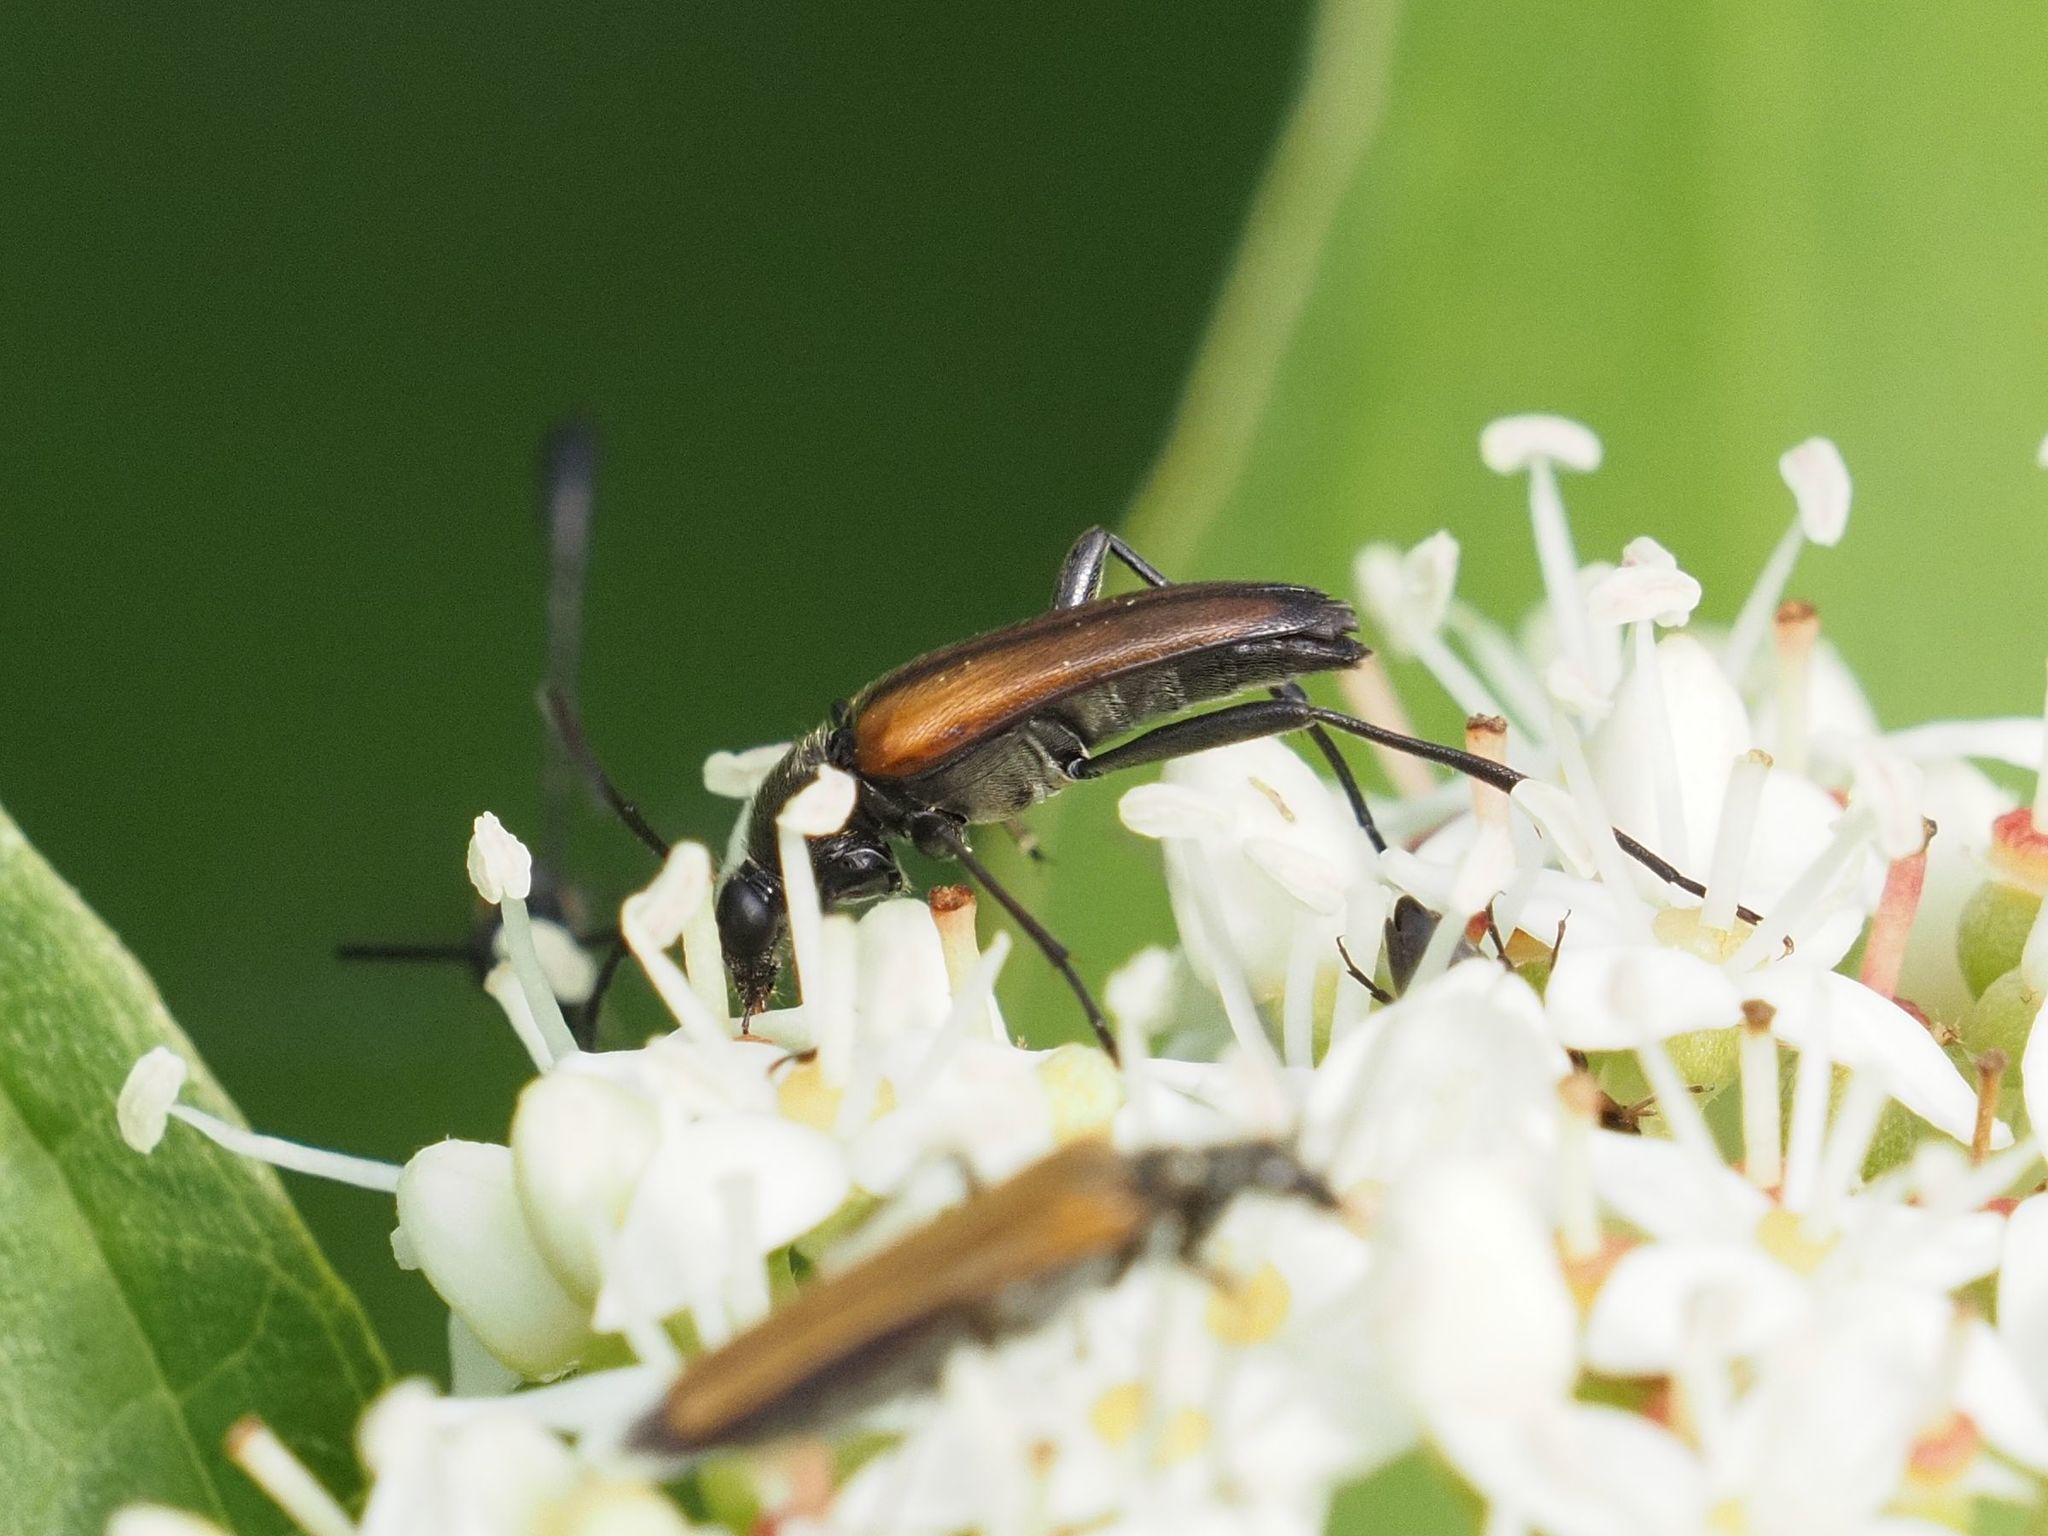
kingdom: Animalia
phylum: Arthropoda
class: Insecta
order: Coleoptera
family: Cerambycidae
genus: Stenurella
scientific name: Stenurella melanura
